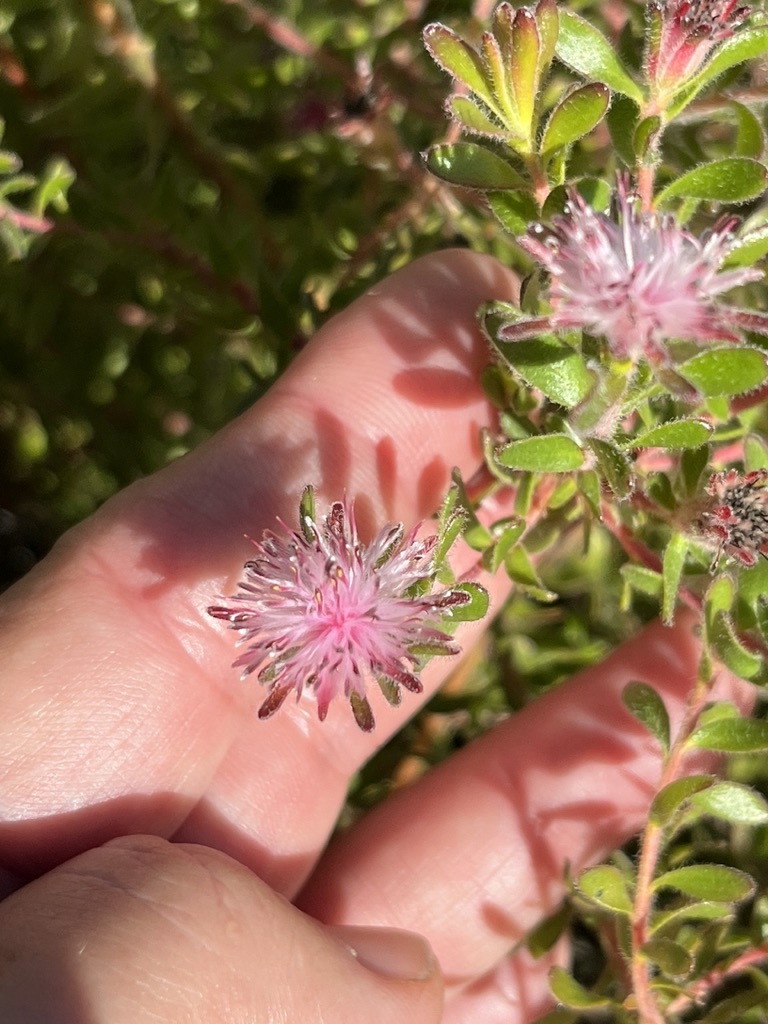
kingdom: Plantae
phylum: Tracheophyta
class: Magnoliopsida
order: Proteales
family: Proteaceae
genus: Diastella
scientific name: Diastella divaricata
